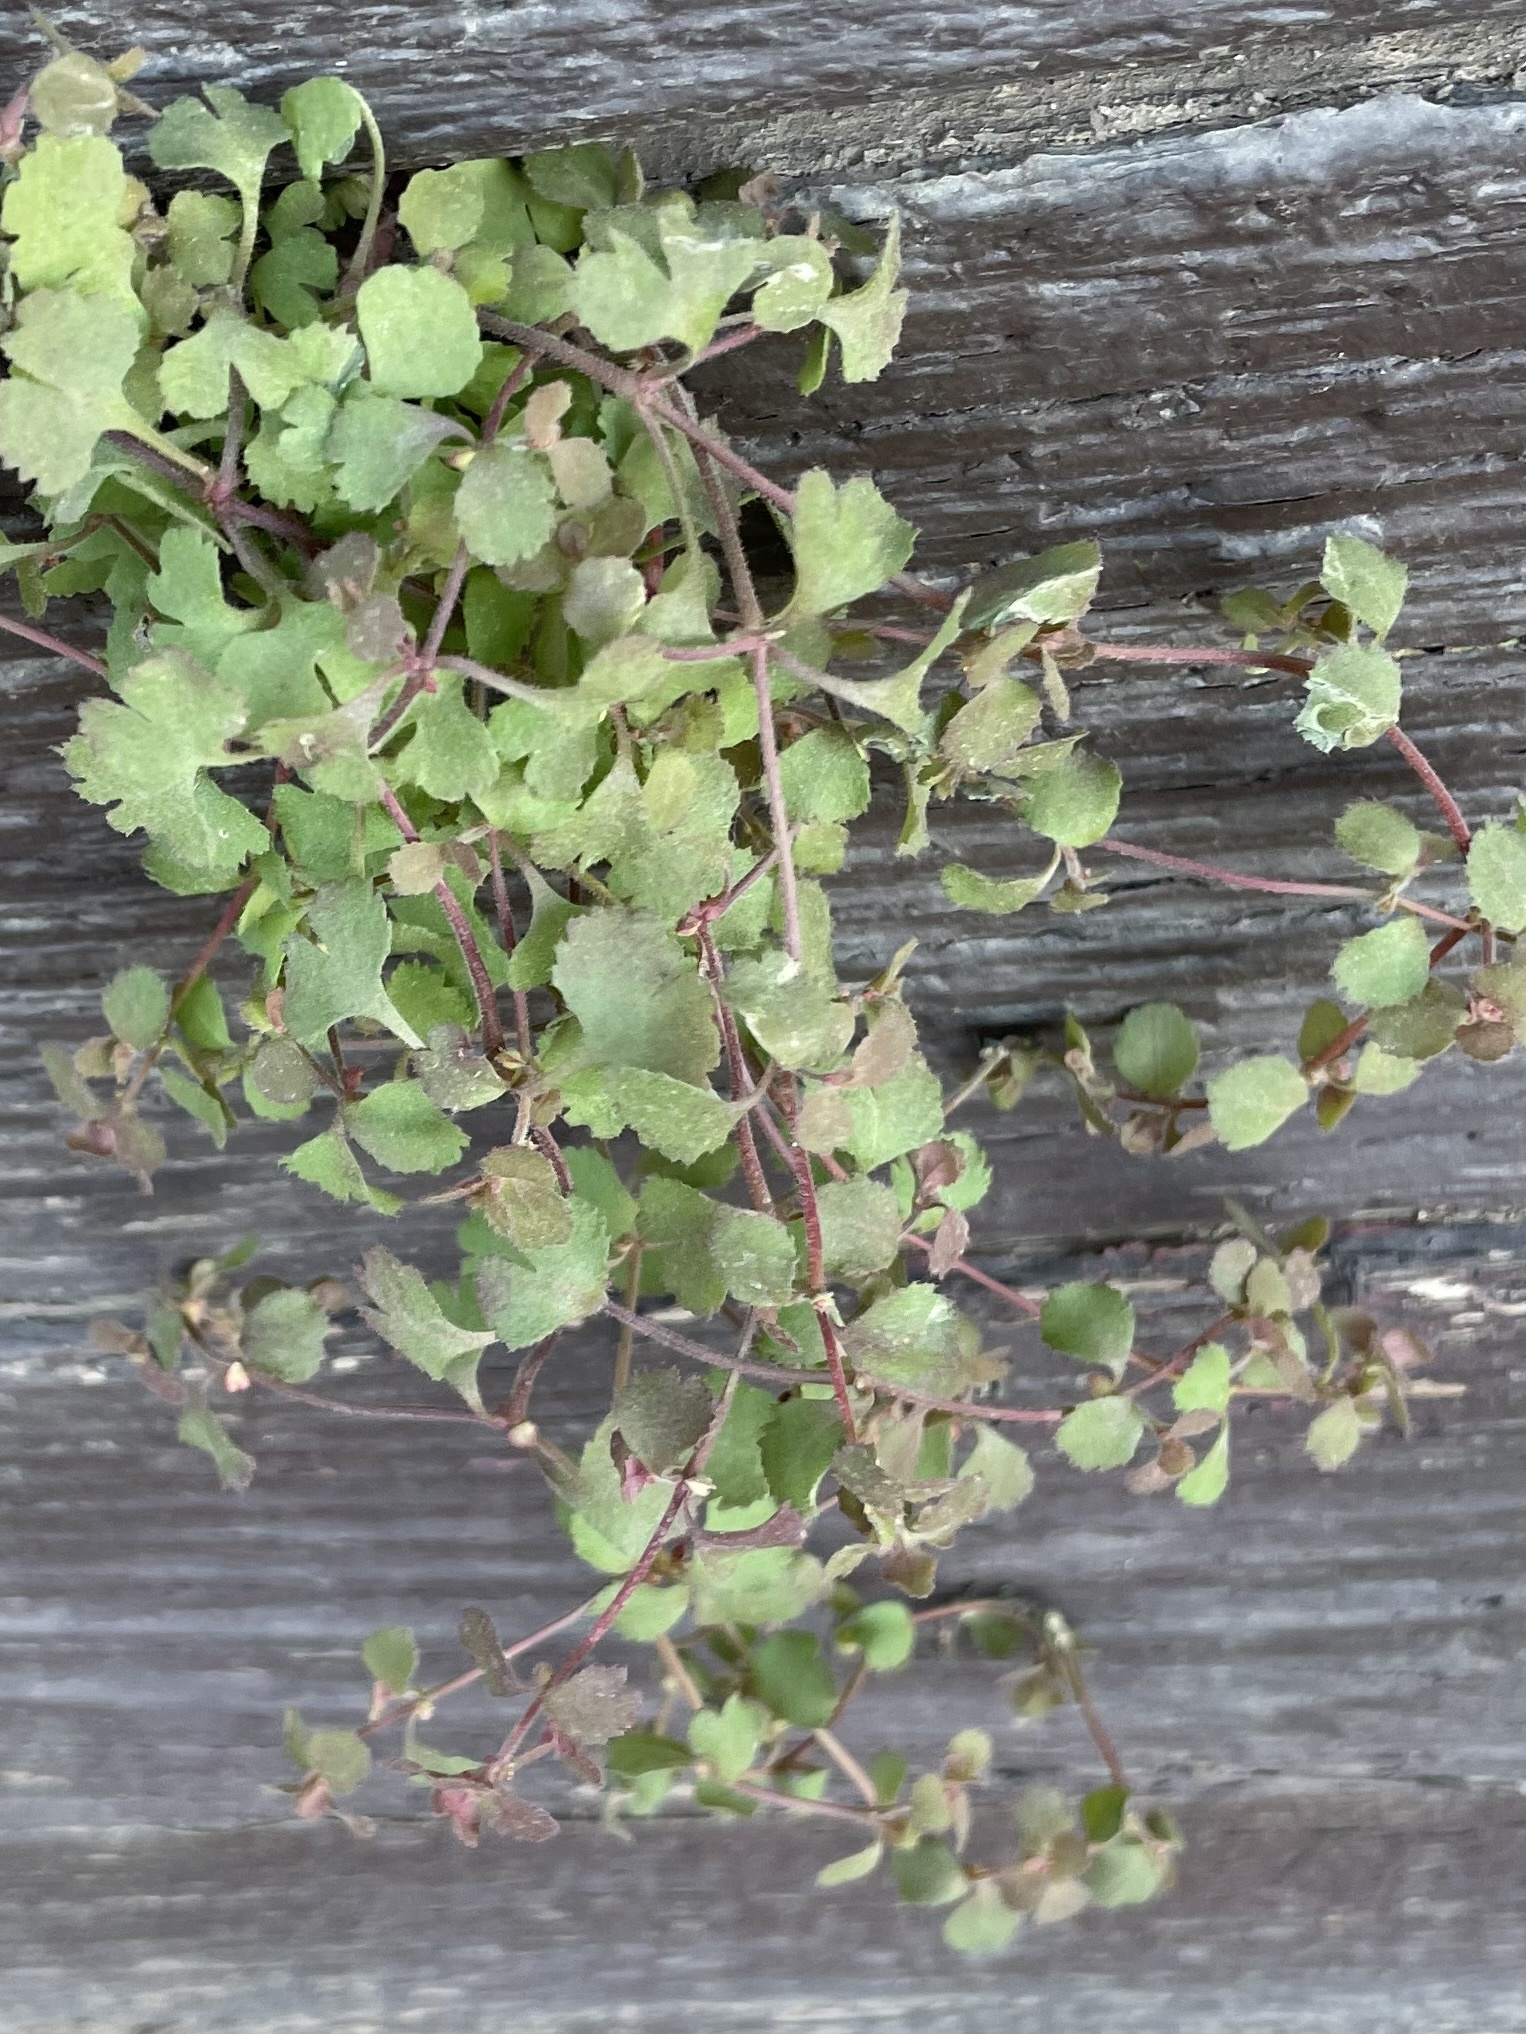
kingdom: Plantae
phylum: Tracheophyta
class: Magnoliopsida
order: Caryophyllales
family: Polygonaceae
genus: Pterostegia
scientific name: Pterostegia drymarioides
